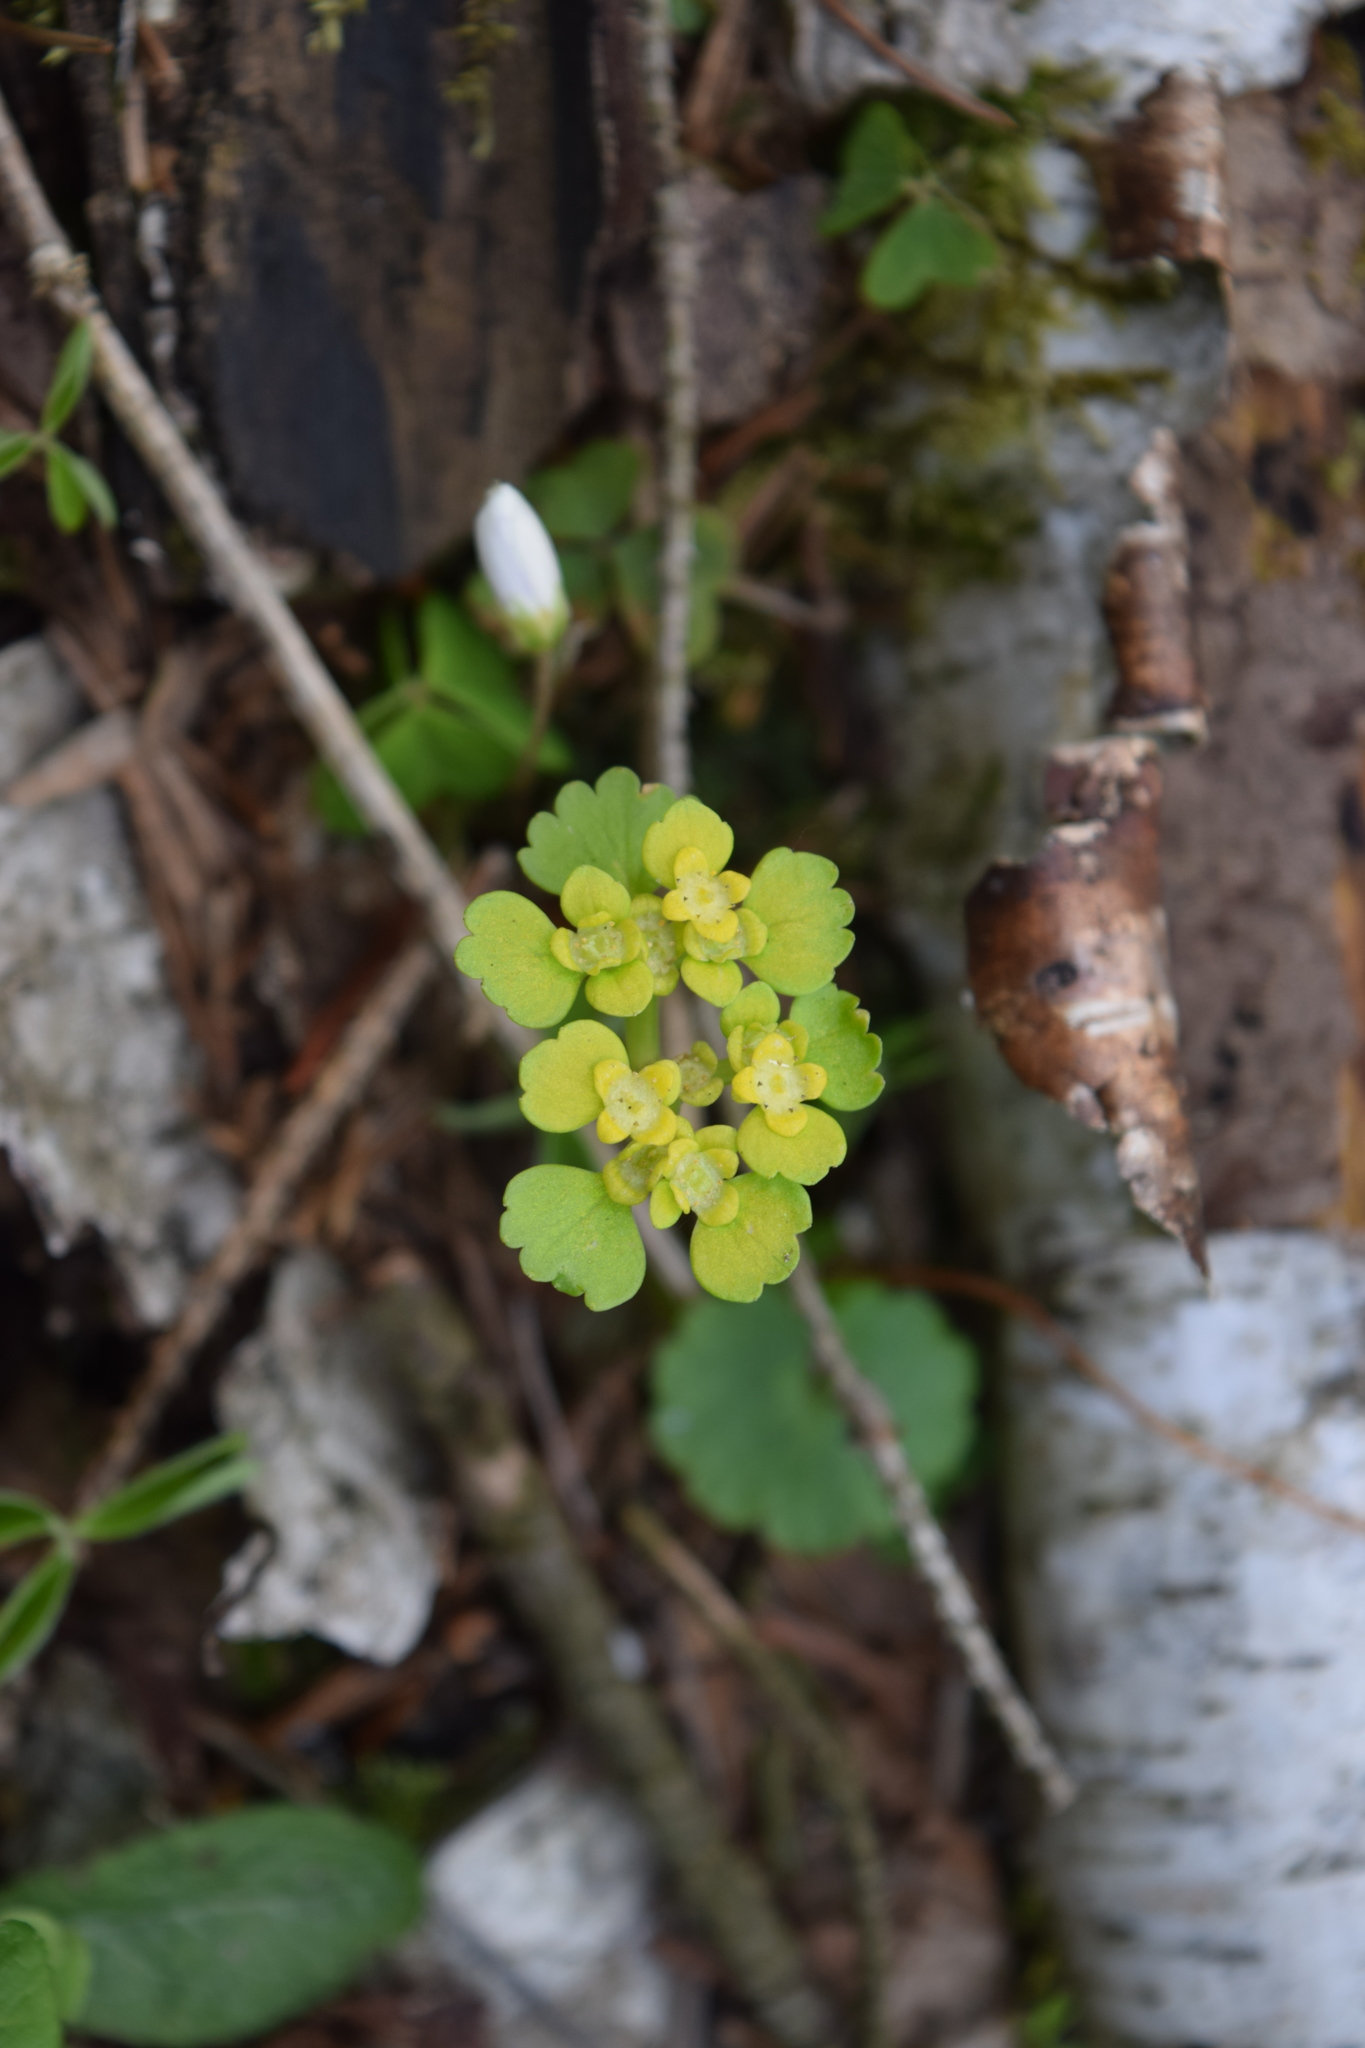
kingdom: Plantae
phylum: Tracheophyta
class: Magnoliopsida
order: Saxifragales
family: Saxifragaceae
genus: Chrysosplenium
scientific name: Chrysosplenium alternifolium
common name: Alternate-leaved golden-saxifrage
